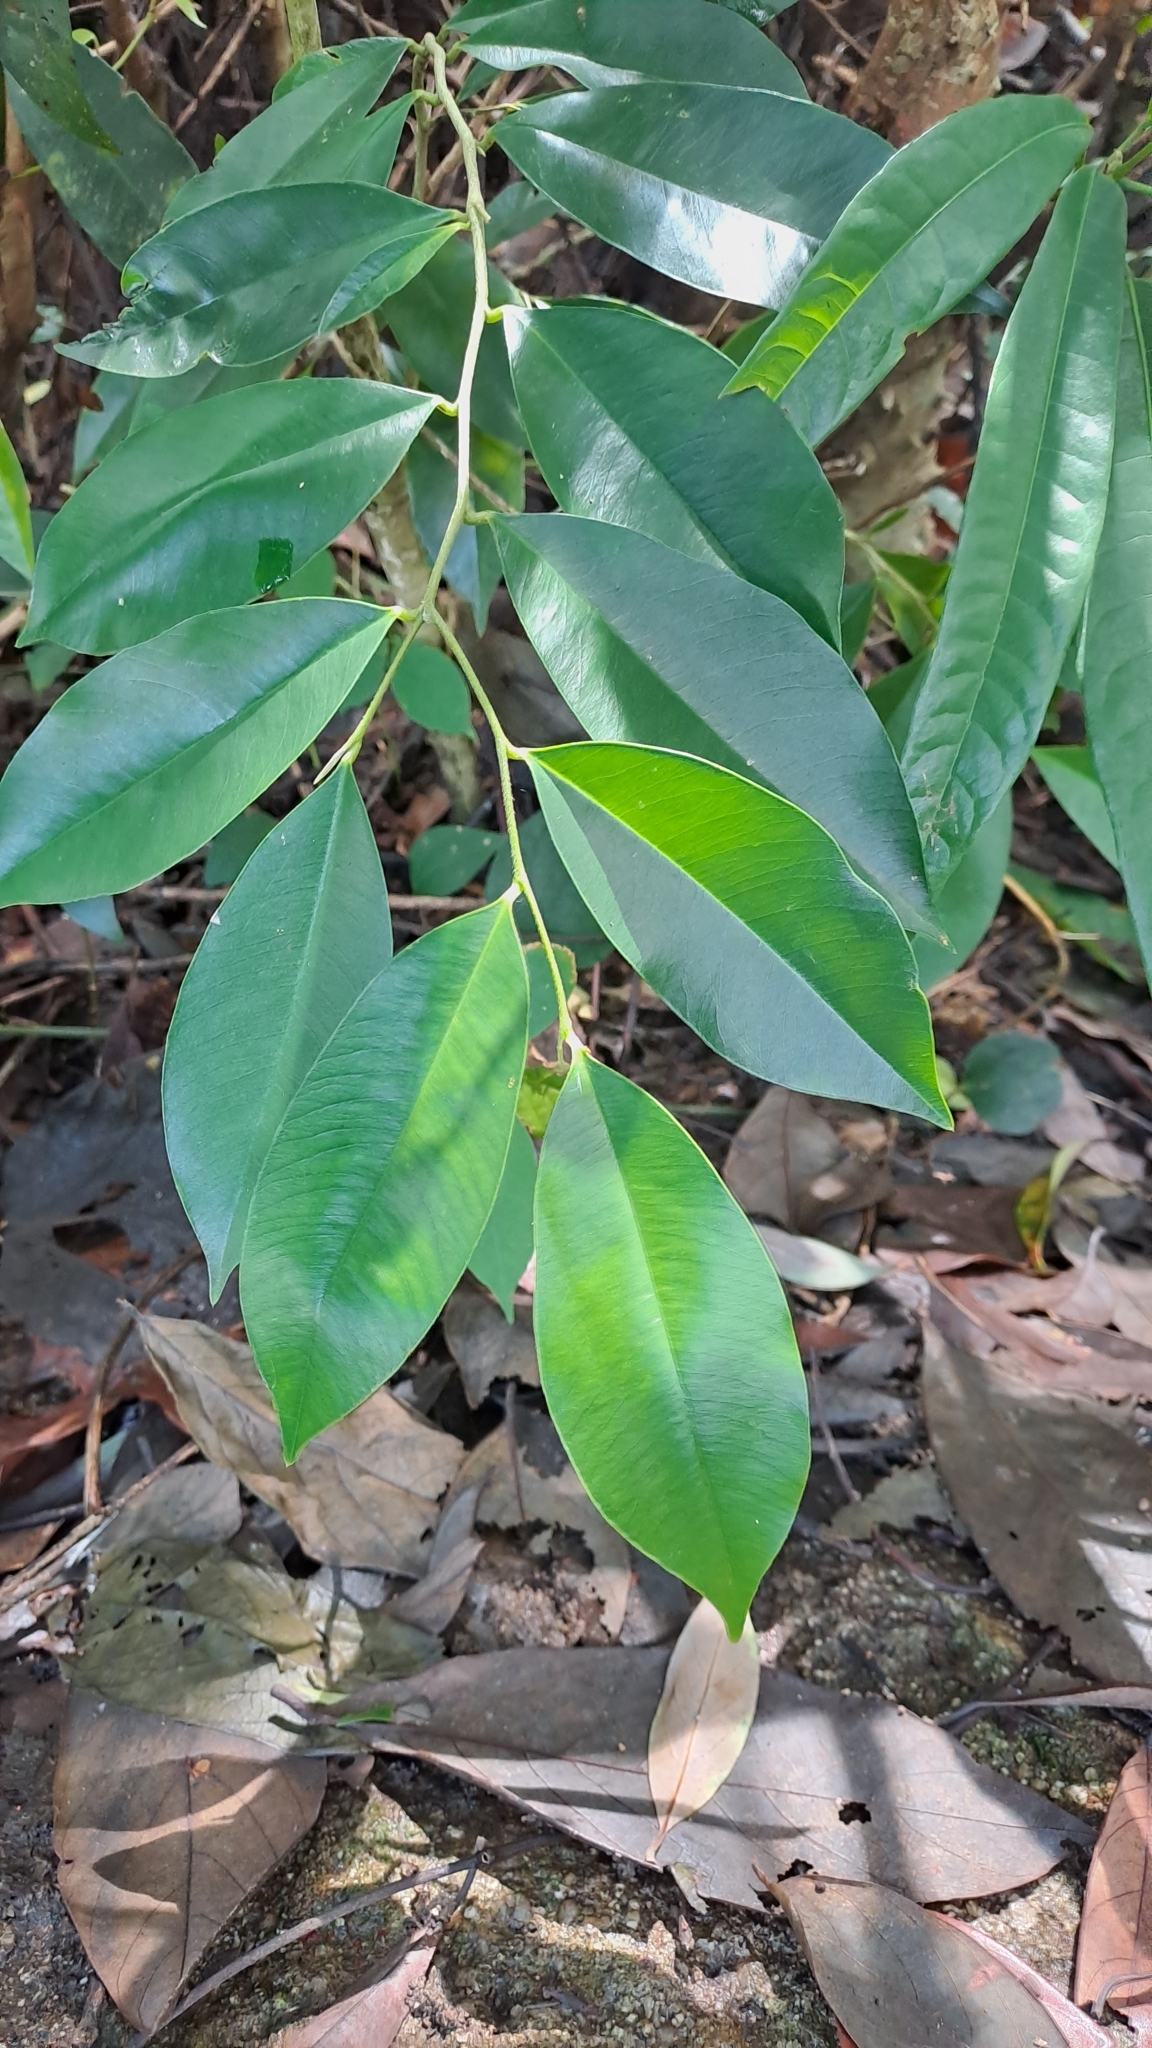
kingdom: Plantae
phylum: Tracheophyta
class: Magnoliopsida
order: Malvales
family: Thymelaeaceae
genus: Aquilaria
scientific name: Aquilaria sinensis
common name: Chinese agarwood
